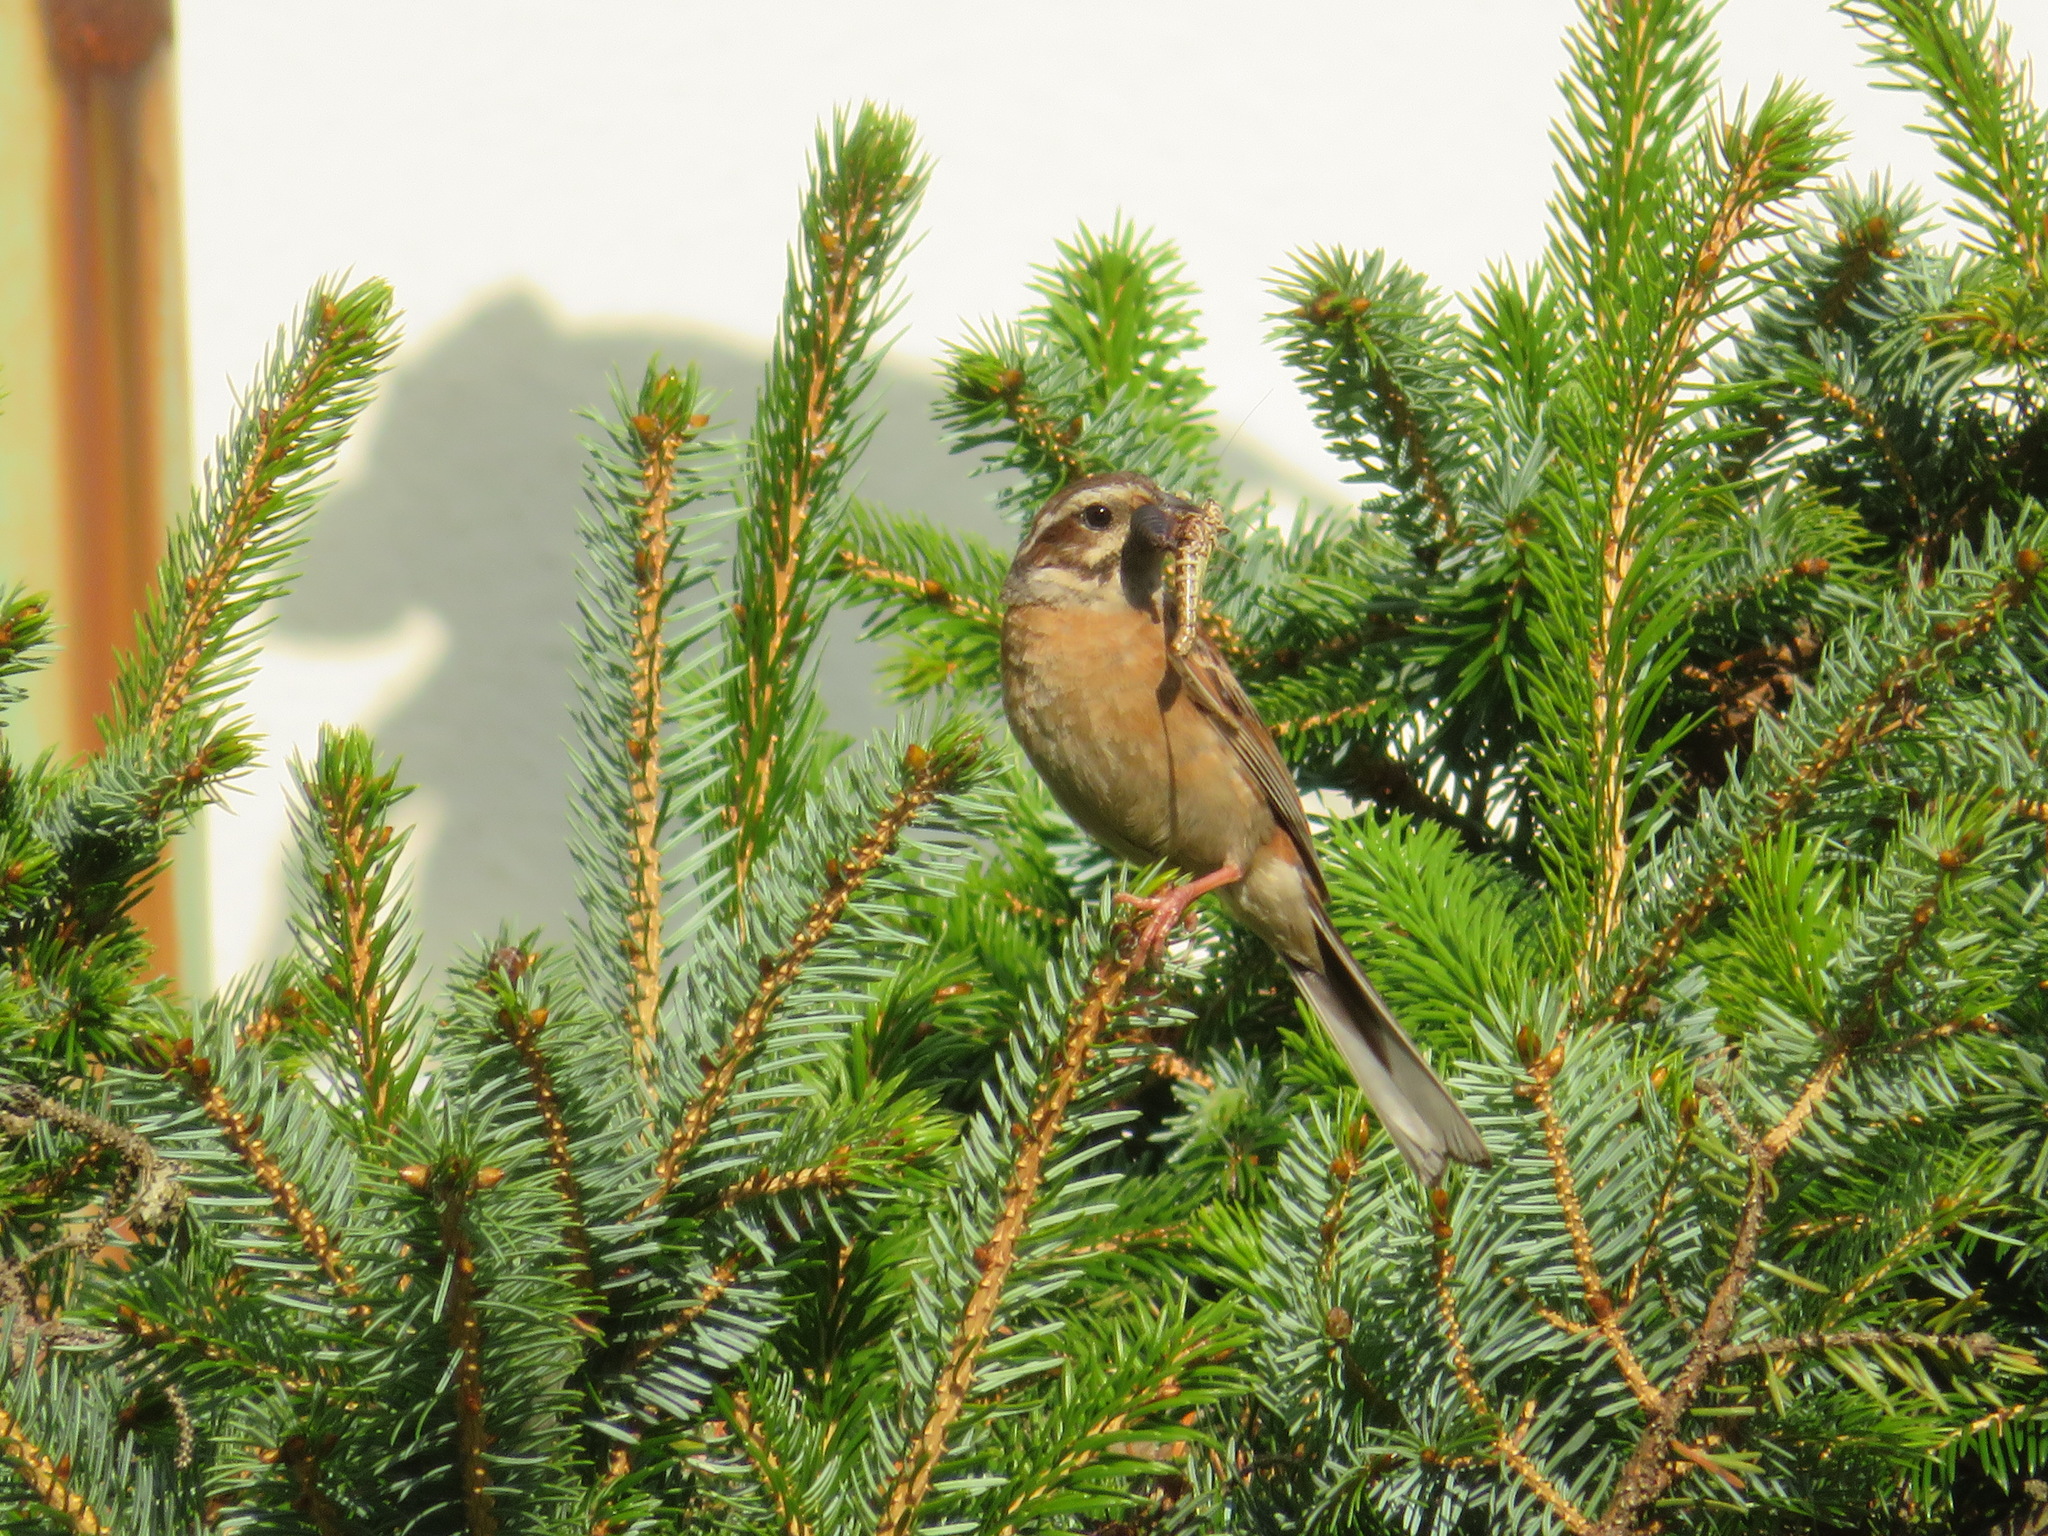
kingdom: Animalia
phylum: Chordata
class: Aves
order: Passeriformes
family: Emberizidae
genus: Emberiza
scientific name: Emberiza cioides
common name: Meadow bunting
